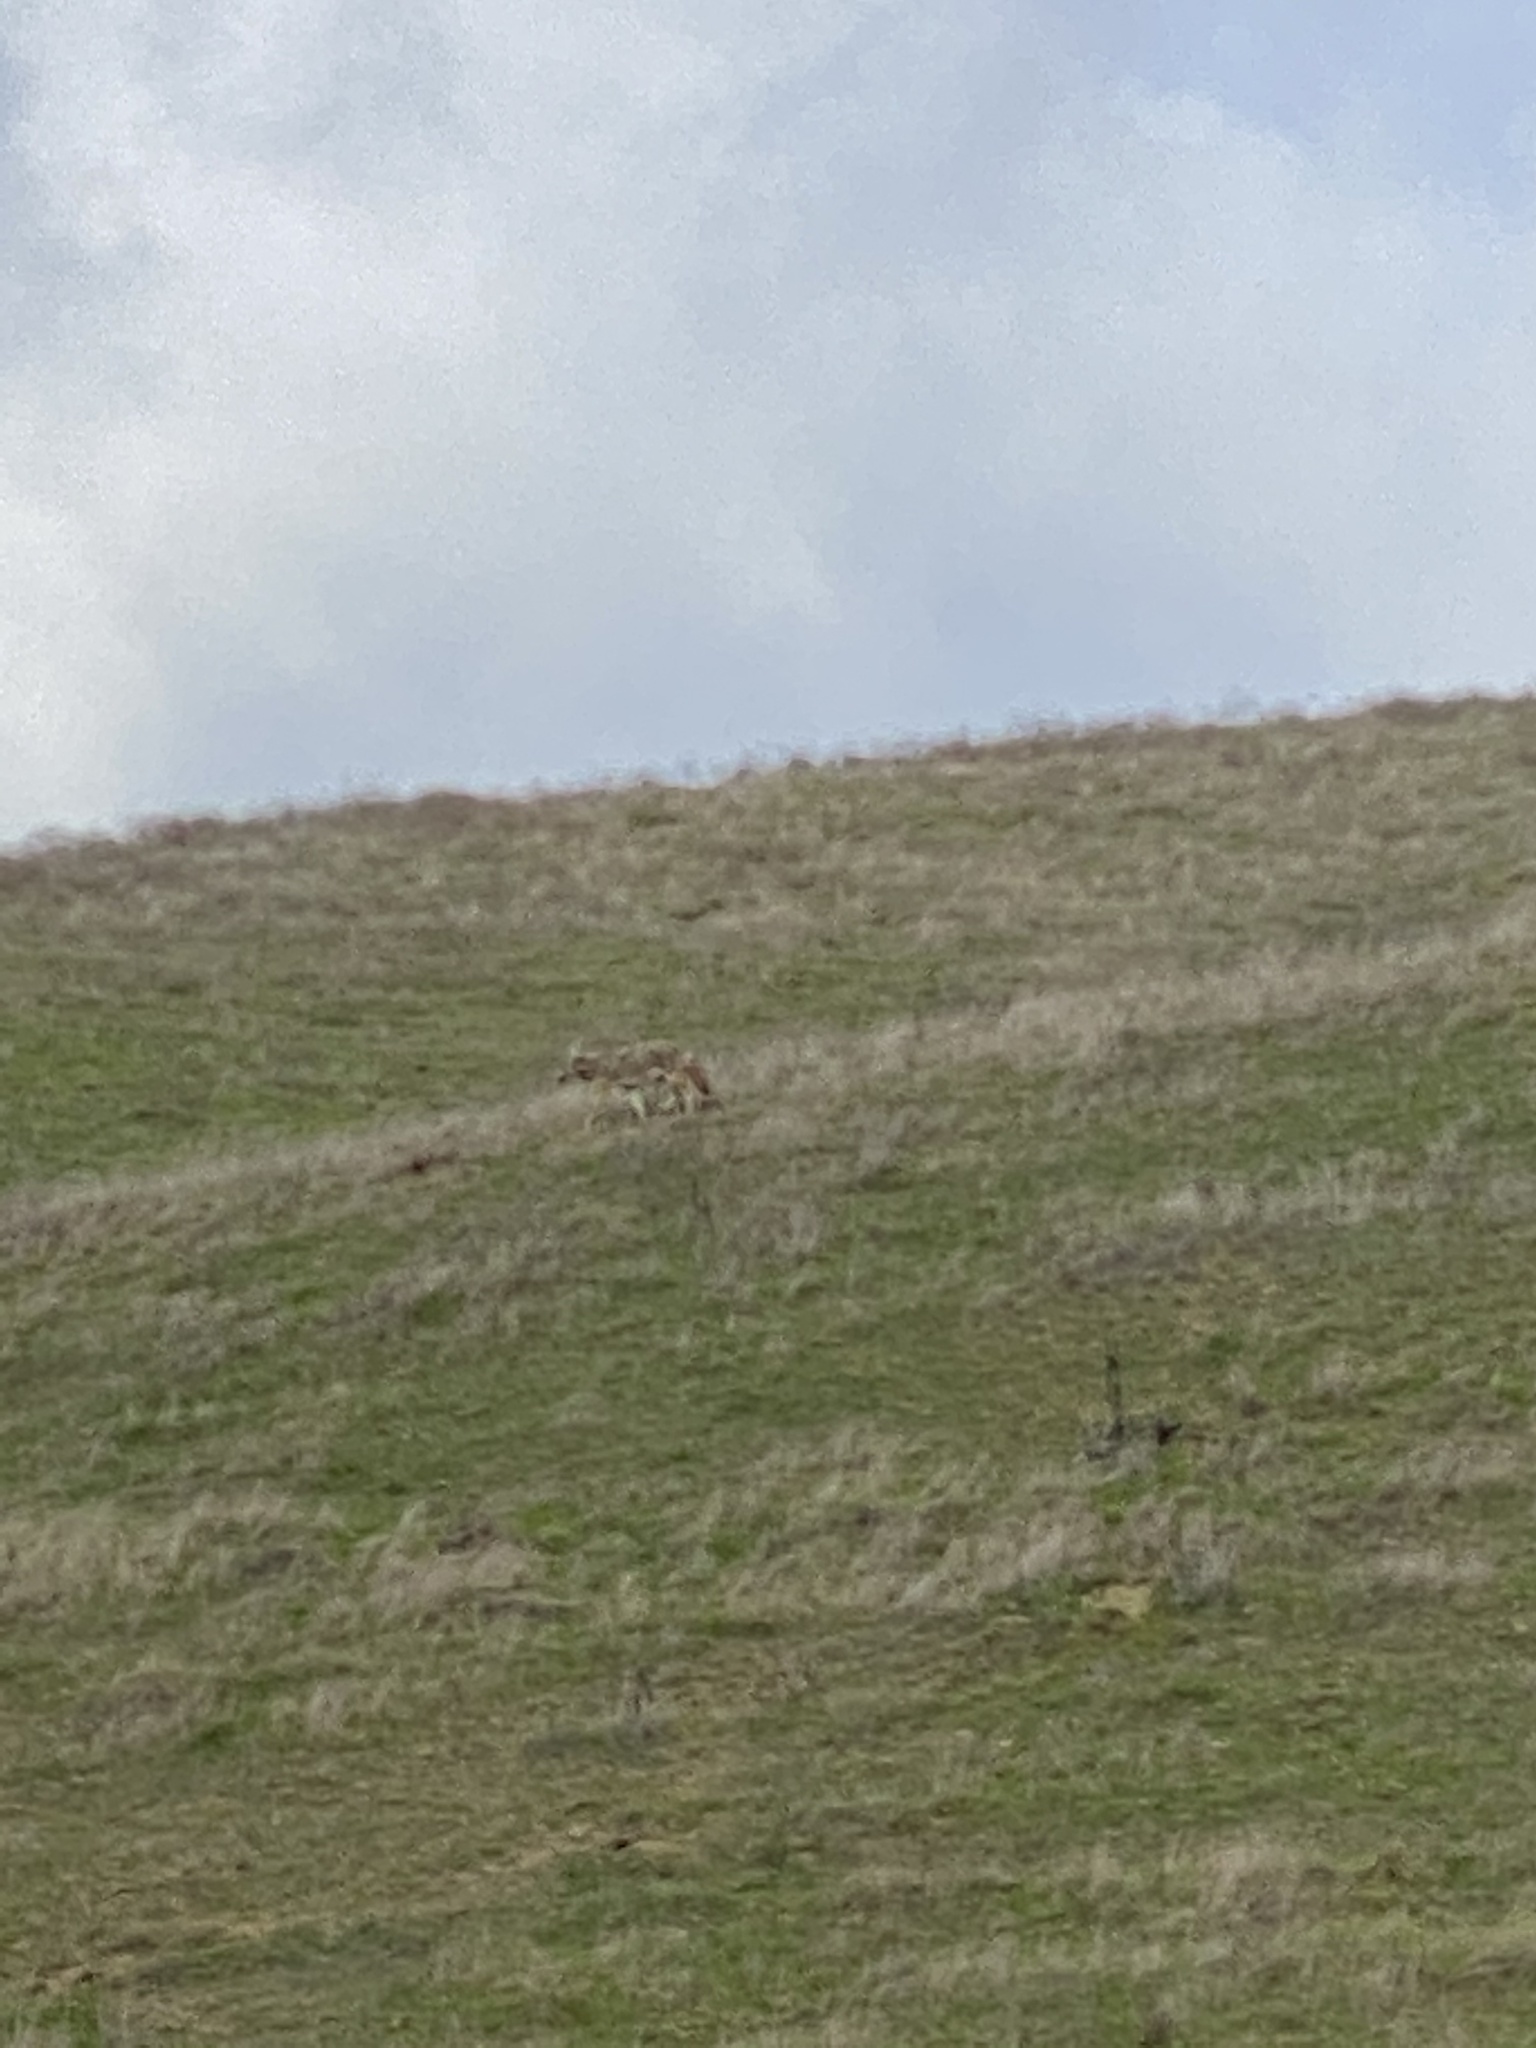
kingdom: Animalia
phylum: Chordata
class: Mammalia
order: Carnivora
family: Canidae
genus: Canis
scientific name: Canis latrans
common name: Coyote
